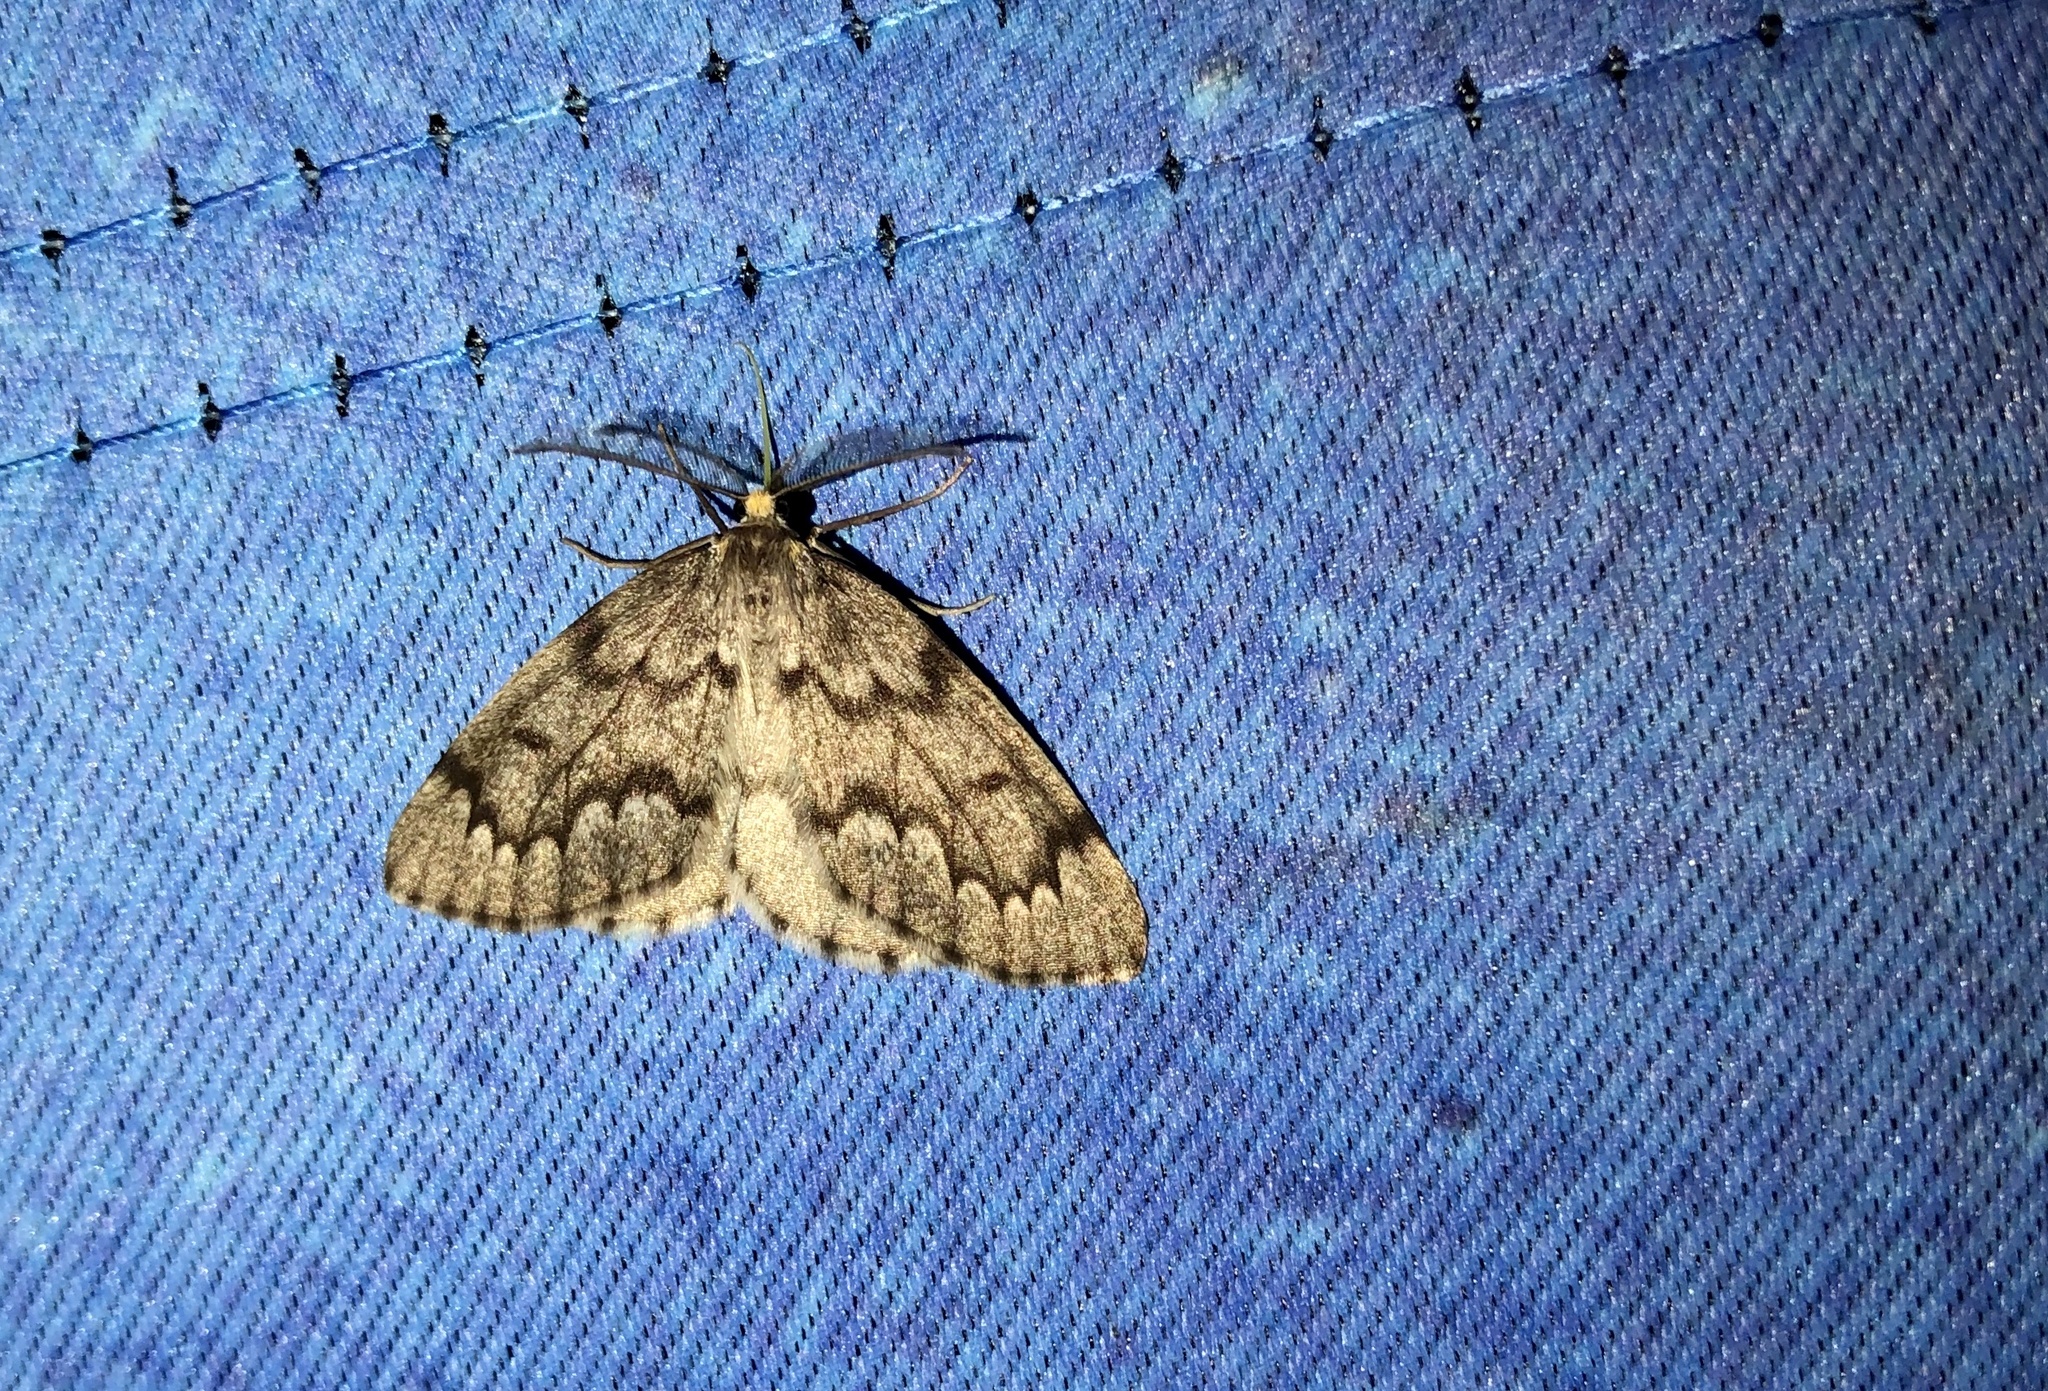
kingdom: Animalia
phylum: Arthropoda
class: Insecta
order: Lepidoptera
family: Geometridae
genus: Nepytia
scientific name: Nepytia canosaria
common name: False hemlock looper
